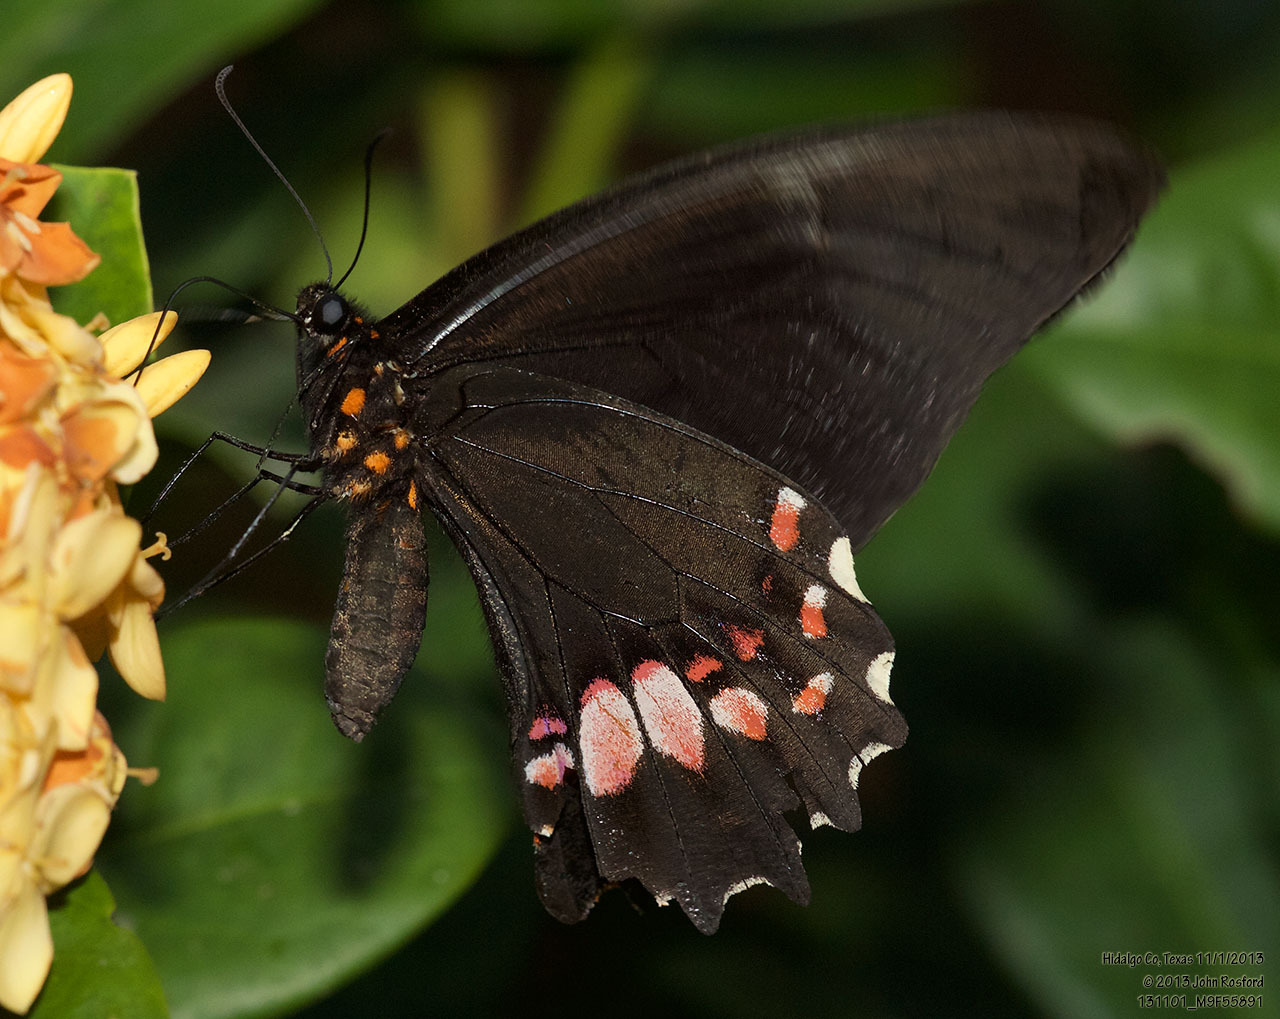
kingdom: Animalia
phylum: Arthropoda
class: Insecta
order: Lepidoptera
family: Papilionidae
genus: Papilio
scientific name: Papilio anchisiades
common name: Idaes swallowtail
